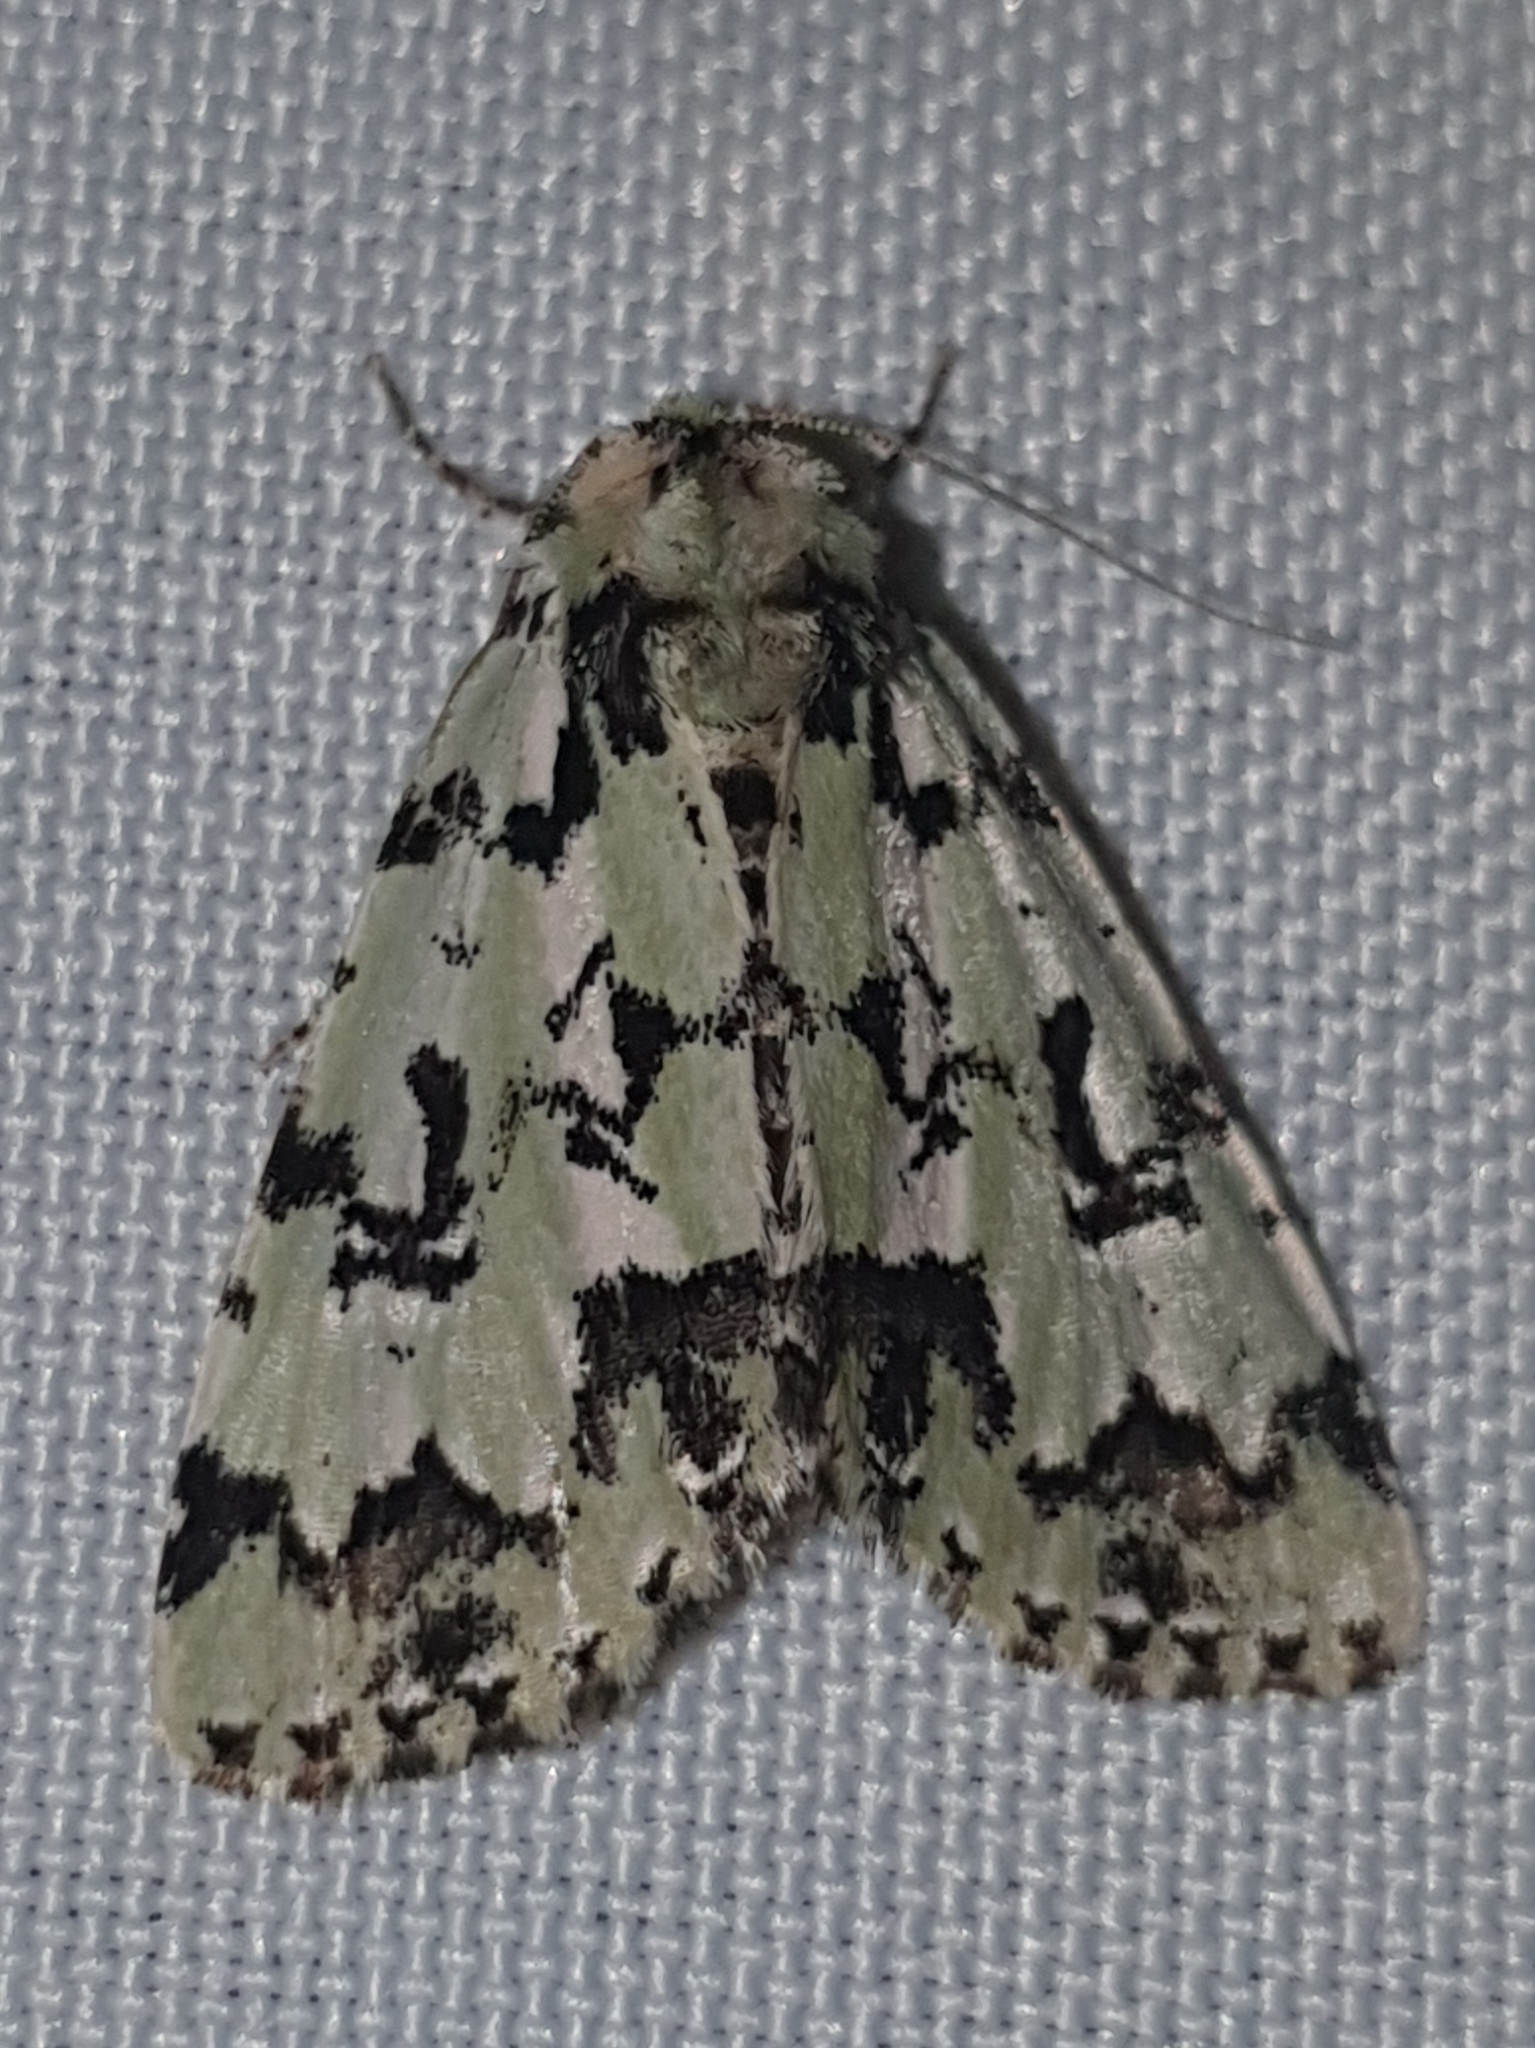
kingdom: Animalia
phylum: Arthropoda
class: Insecta
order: Lepidoptera
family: Noctuidae
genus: Moma
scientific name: Moma alpium
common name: Scarce merveille du jour
